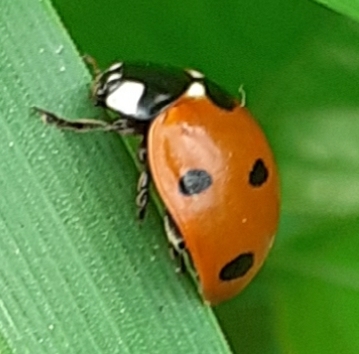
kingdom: Animalia
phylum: Arthropoda
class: Insecta
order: Coleoptera
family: Coccinellidae
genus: Coccinella
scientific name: Coccinella septempunctata
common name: Sevenspotted lady beetle
